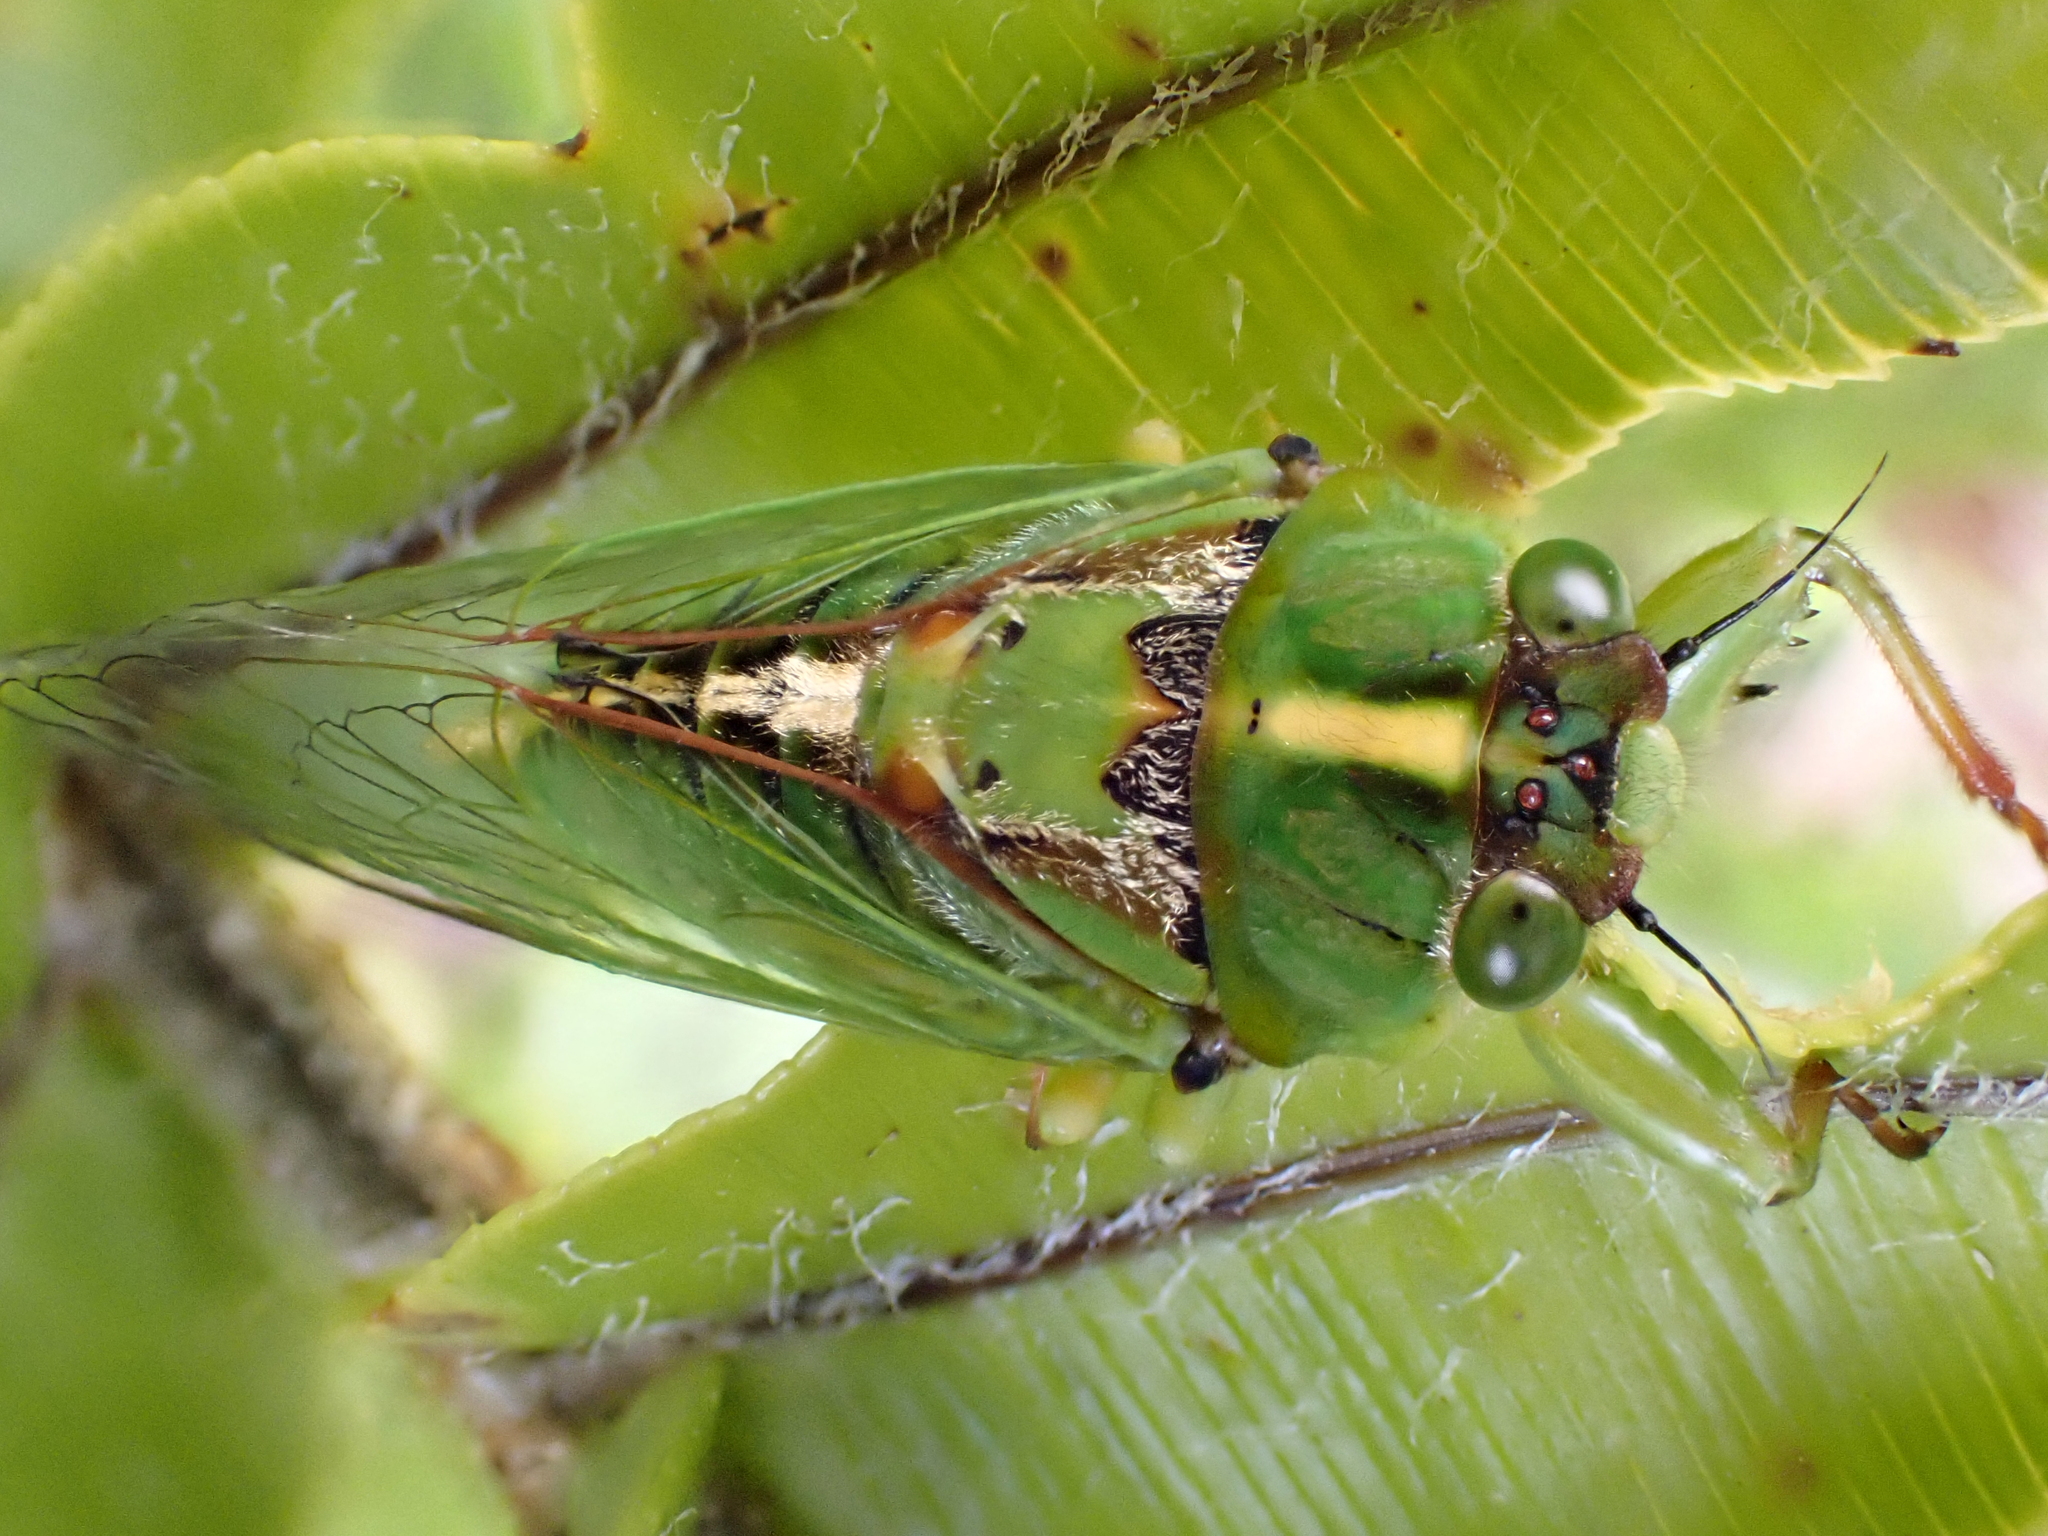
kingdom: Animalia
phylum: Arthropoda
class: Insecta
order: Hemiptera
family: Cicadidae
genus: Kikihia
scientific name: Kikihia subalpina
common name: Chathams cicada
